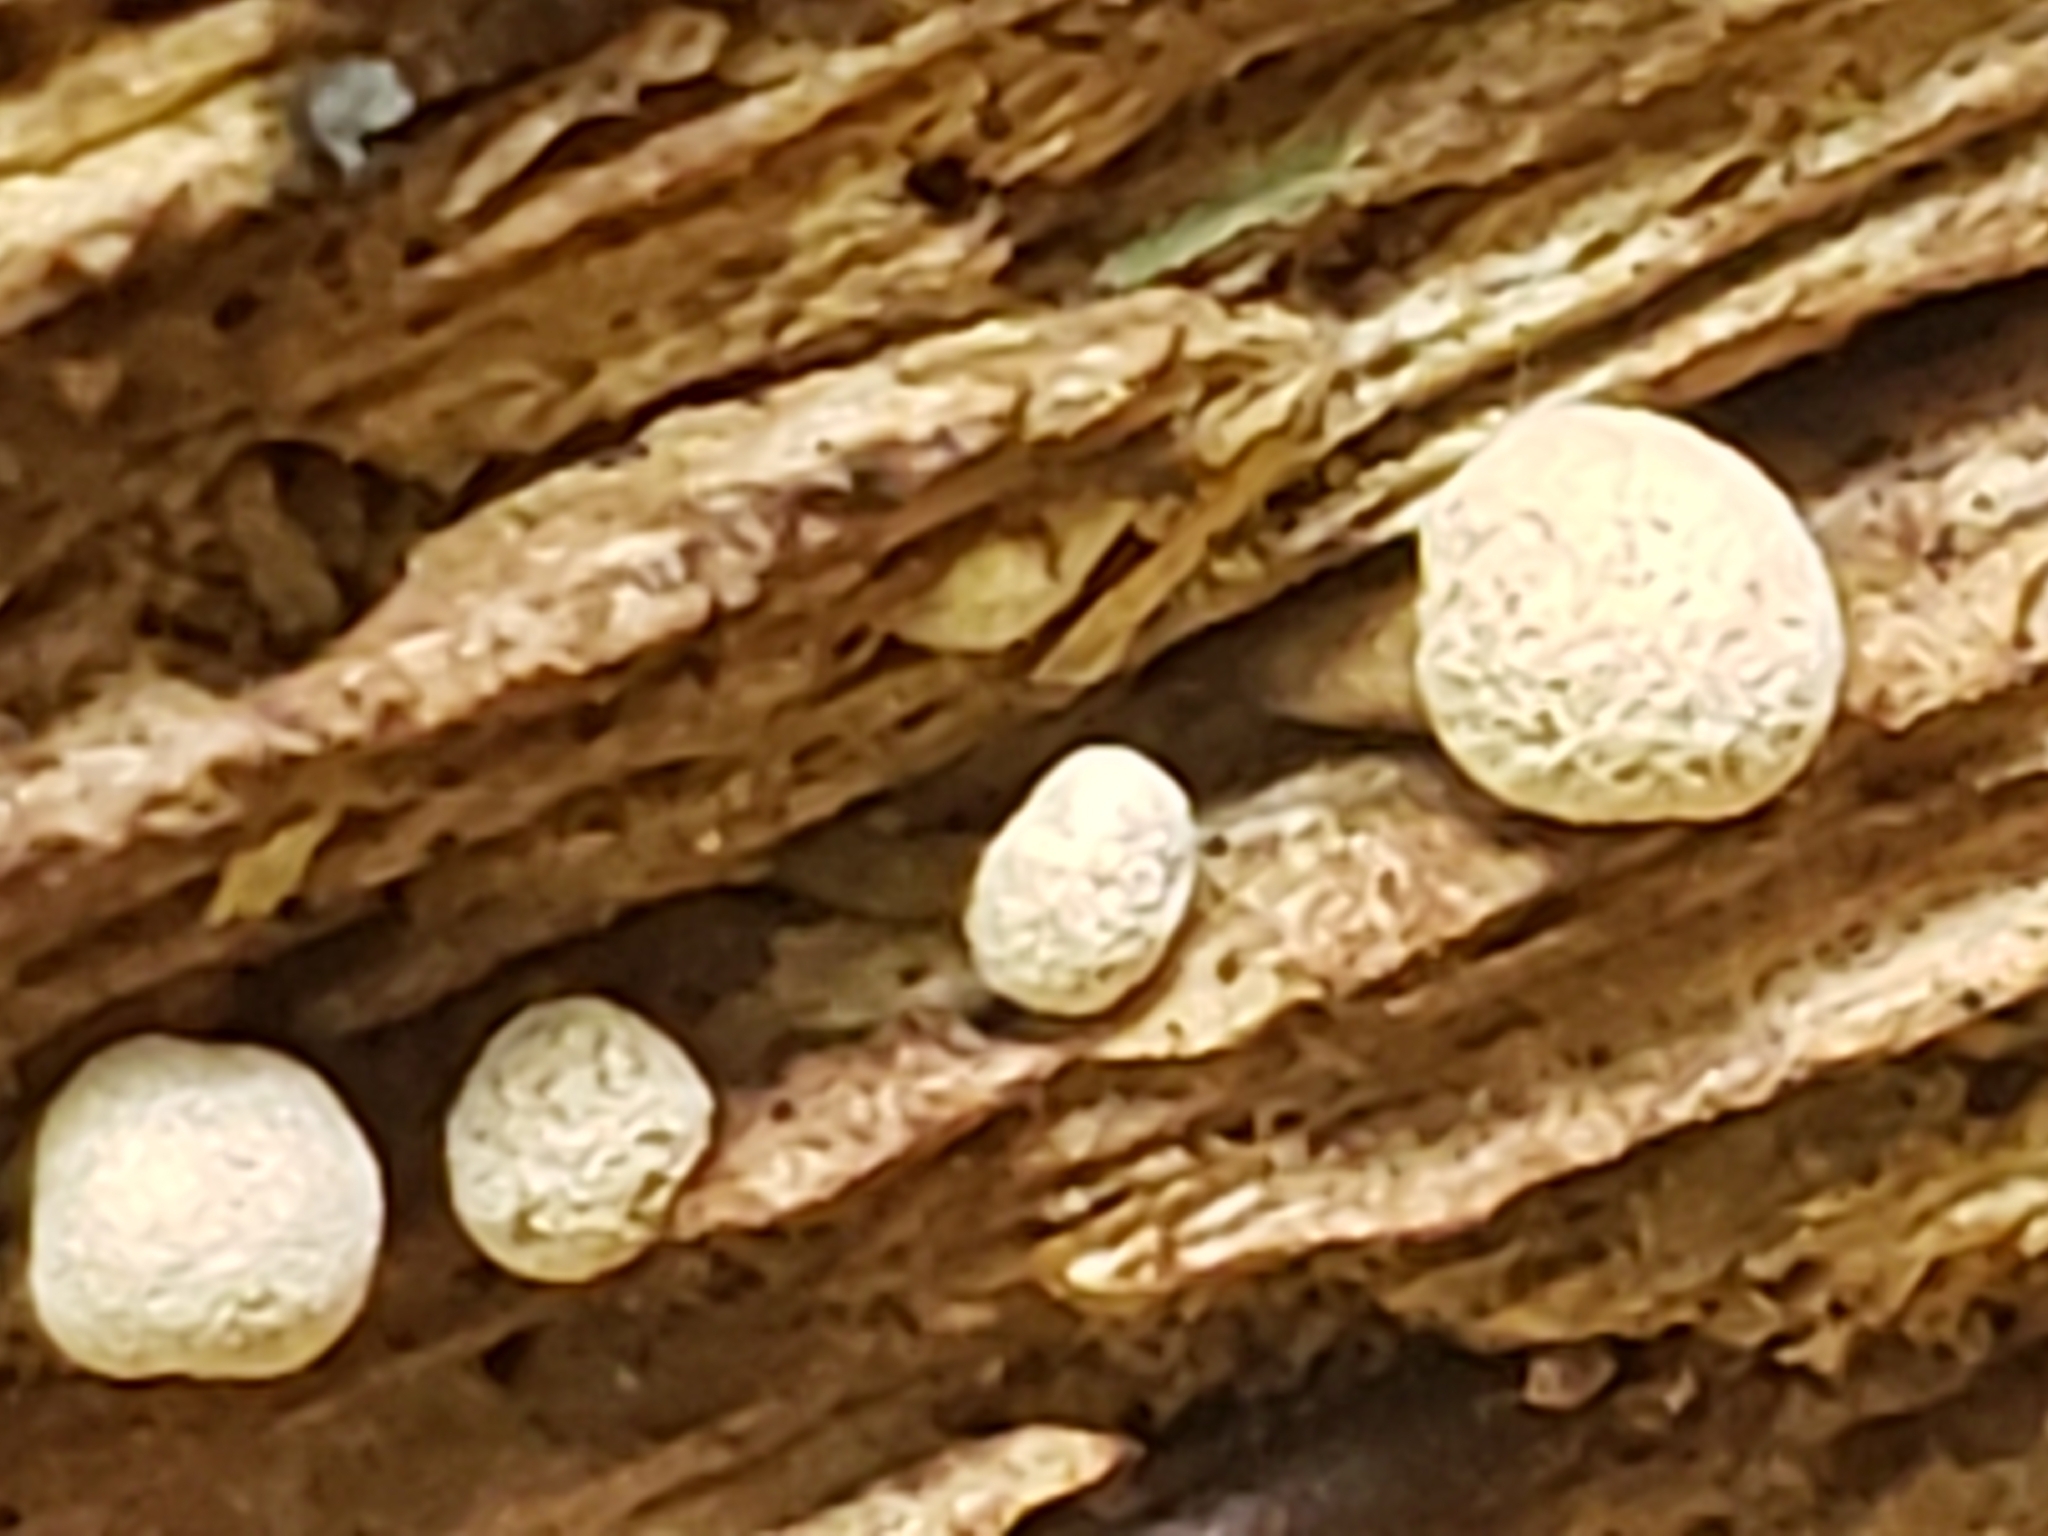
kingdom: Fungi
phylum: Basidiomycota
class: Atractiellomycetes
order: Atractiellales
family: Phleogenaceae
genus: Phleogena
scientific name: Phleogena faginea
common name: Fenugreek stalkball
